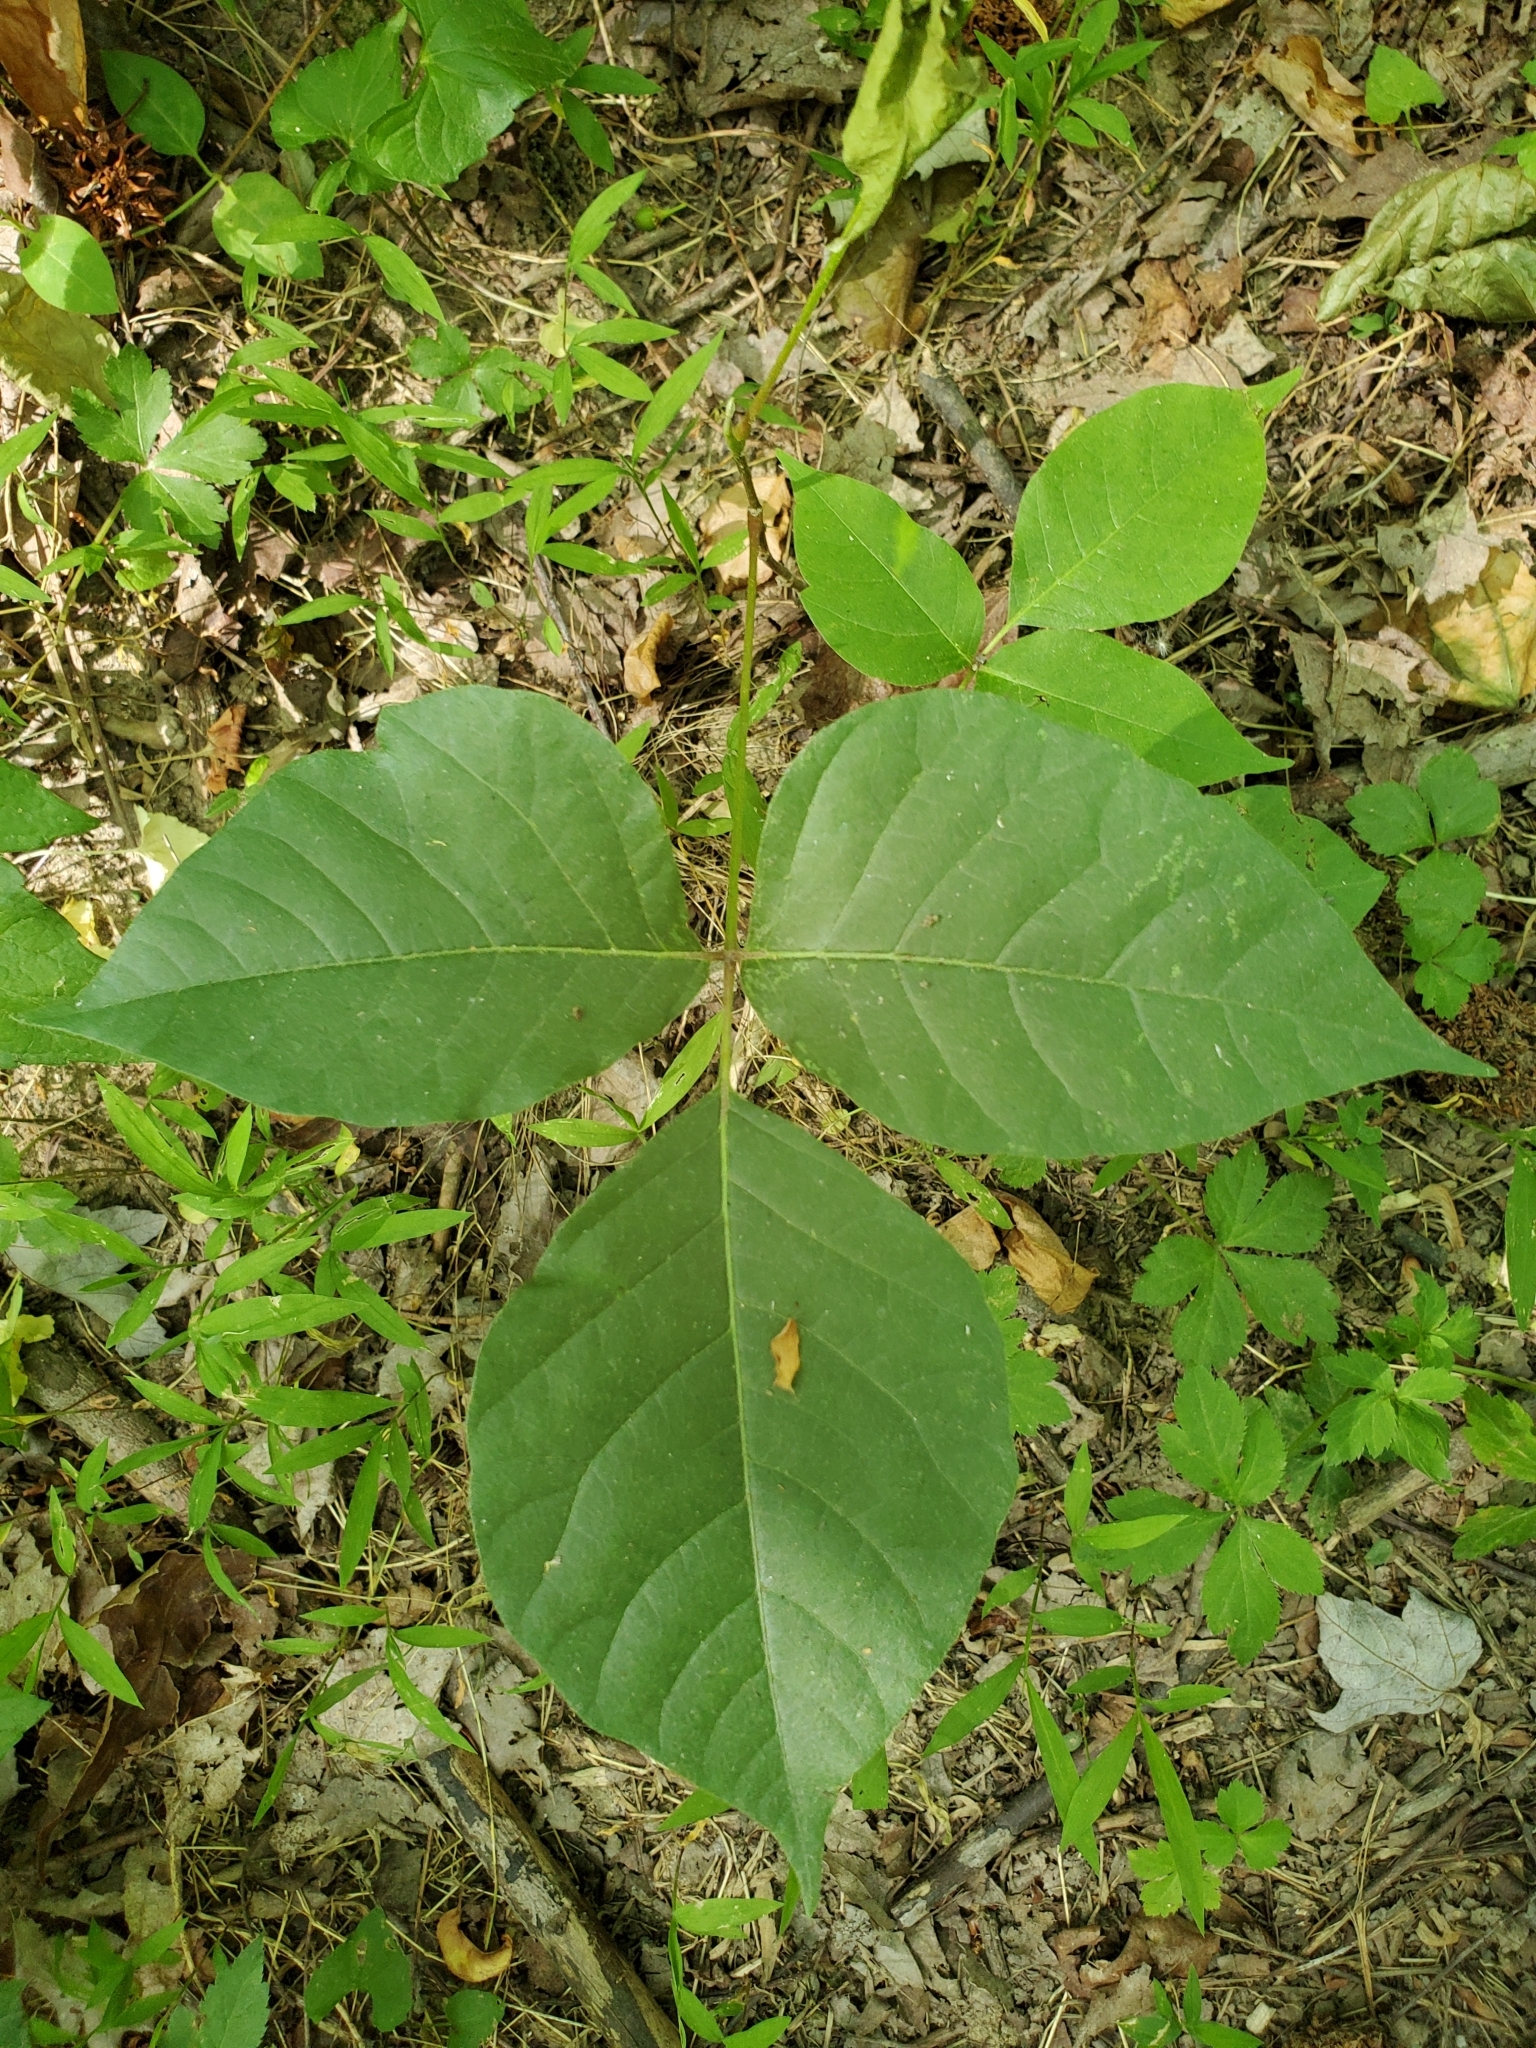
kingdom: Plantae
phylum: Tracheophyta
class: Magnoliopsida
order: Sapindales
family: Anacardiaceae
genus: Toxicodendron
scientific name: Toxicodendron radicans
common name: Poison ivy
